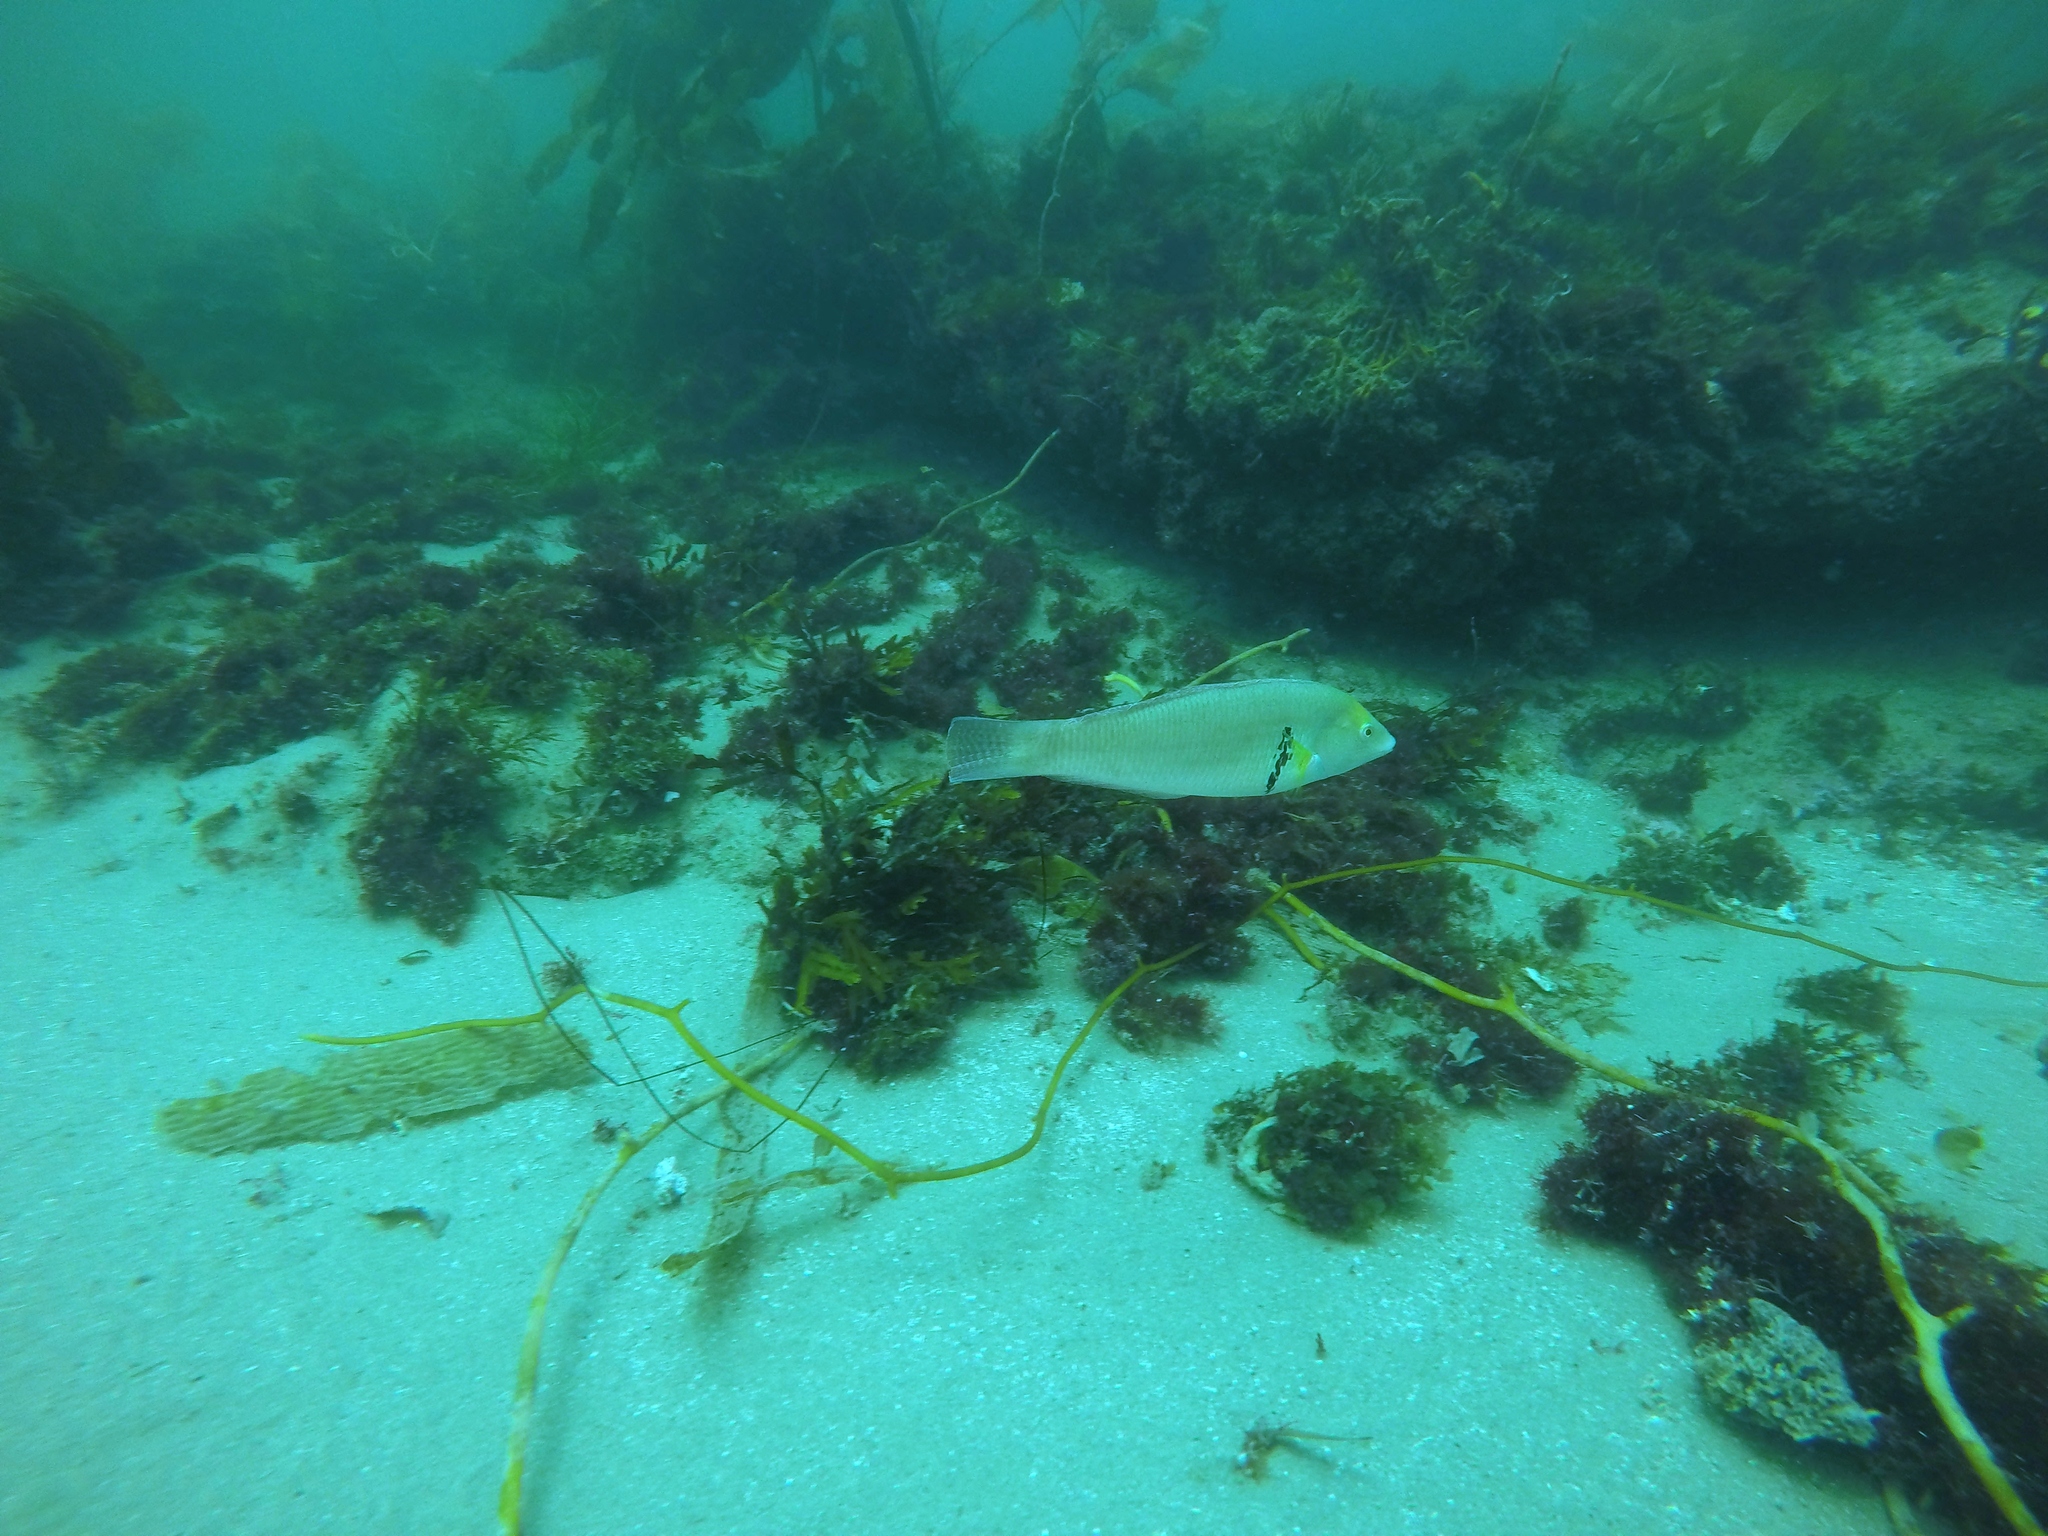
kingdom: Animalia
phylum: Chordata
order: Perciformes
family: Labridae
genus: Halichoeres
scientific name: Halichoeres semicinctus
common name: Rock wrasse
